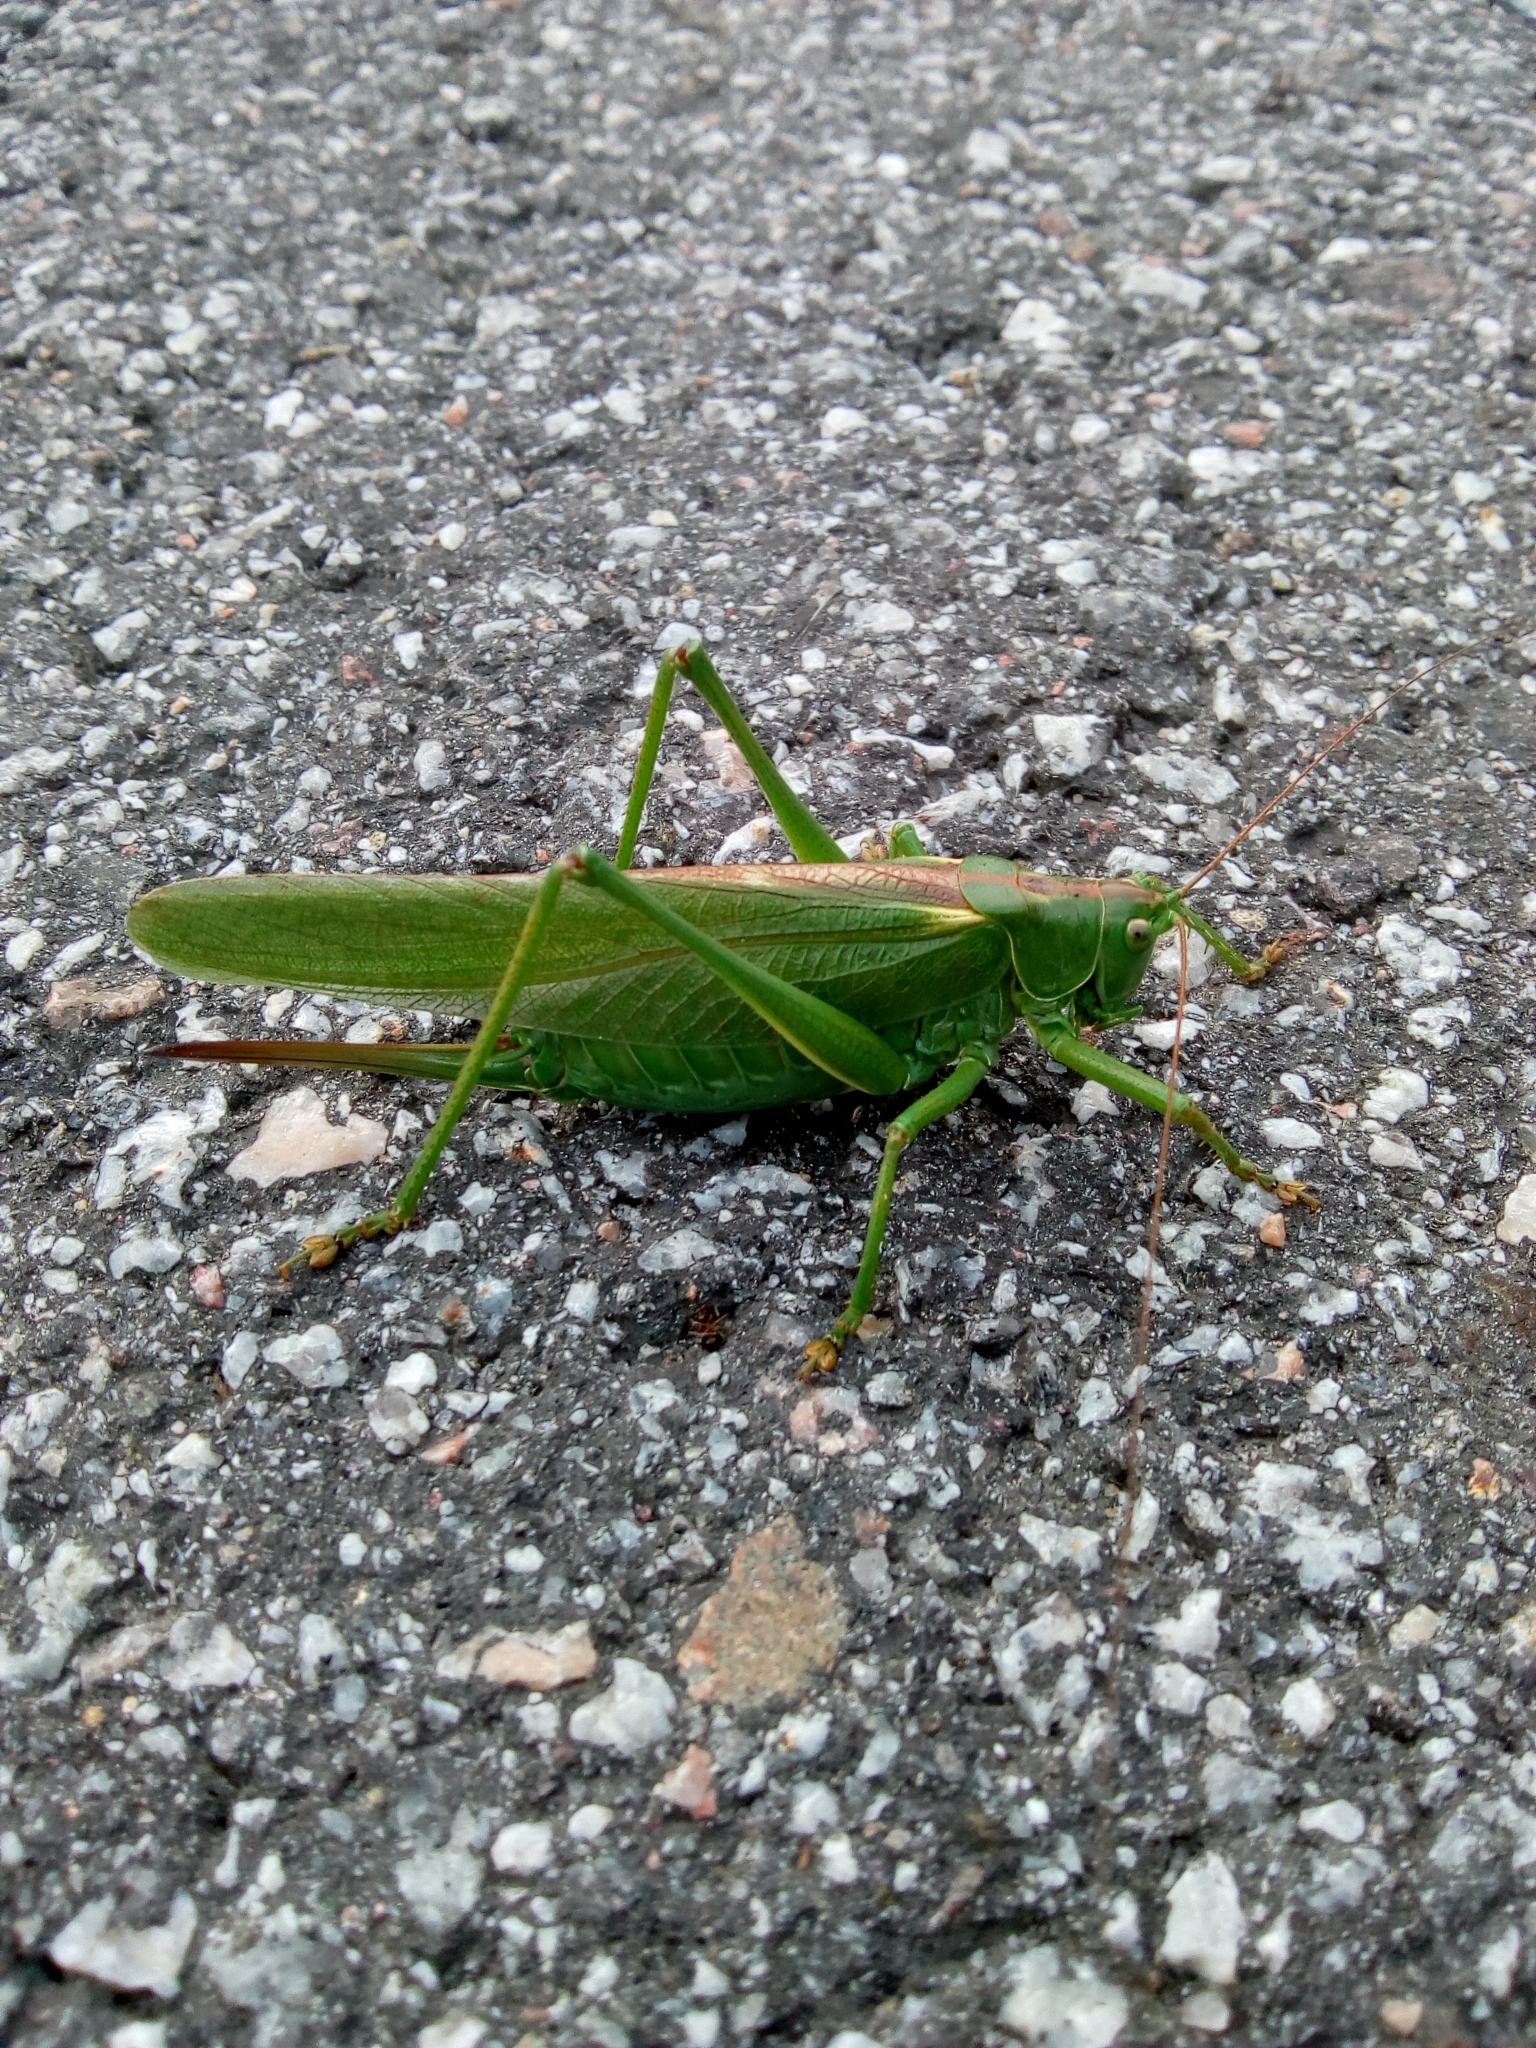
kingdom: Animalia
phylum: Arthropoda
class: Insecta
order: Orthoptera
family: Tettigoniidae
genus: Tettigonia
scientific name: Tettigonia viridissima
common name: Great green bush-cricket
